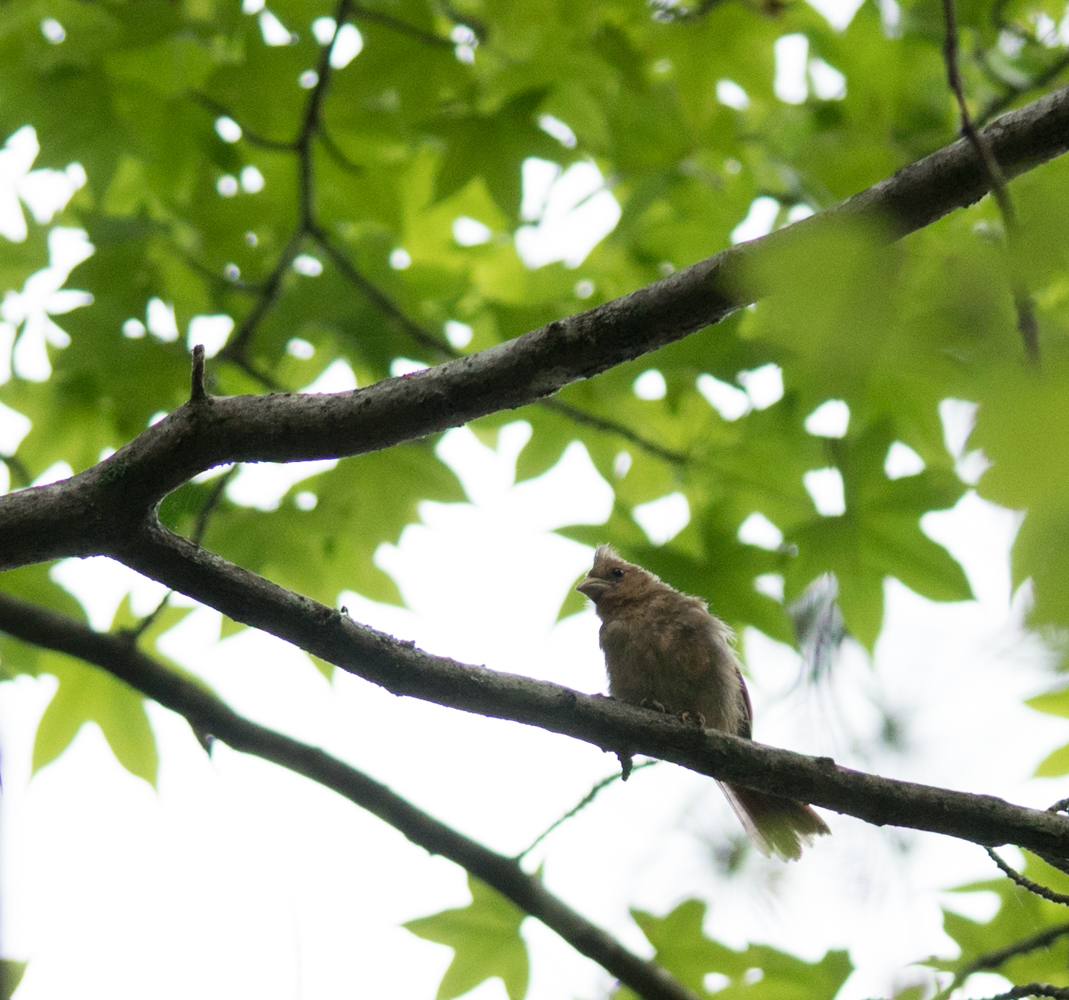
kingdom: Animalia
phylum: Chordata
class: Aves
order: Passeriformes
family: Cardinalidae
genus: Cardinalis
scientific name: Cardinalis cardinalis
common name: Northern cardinal
